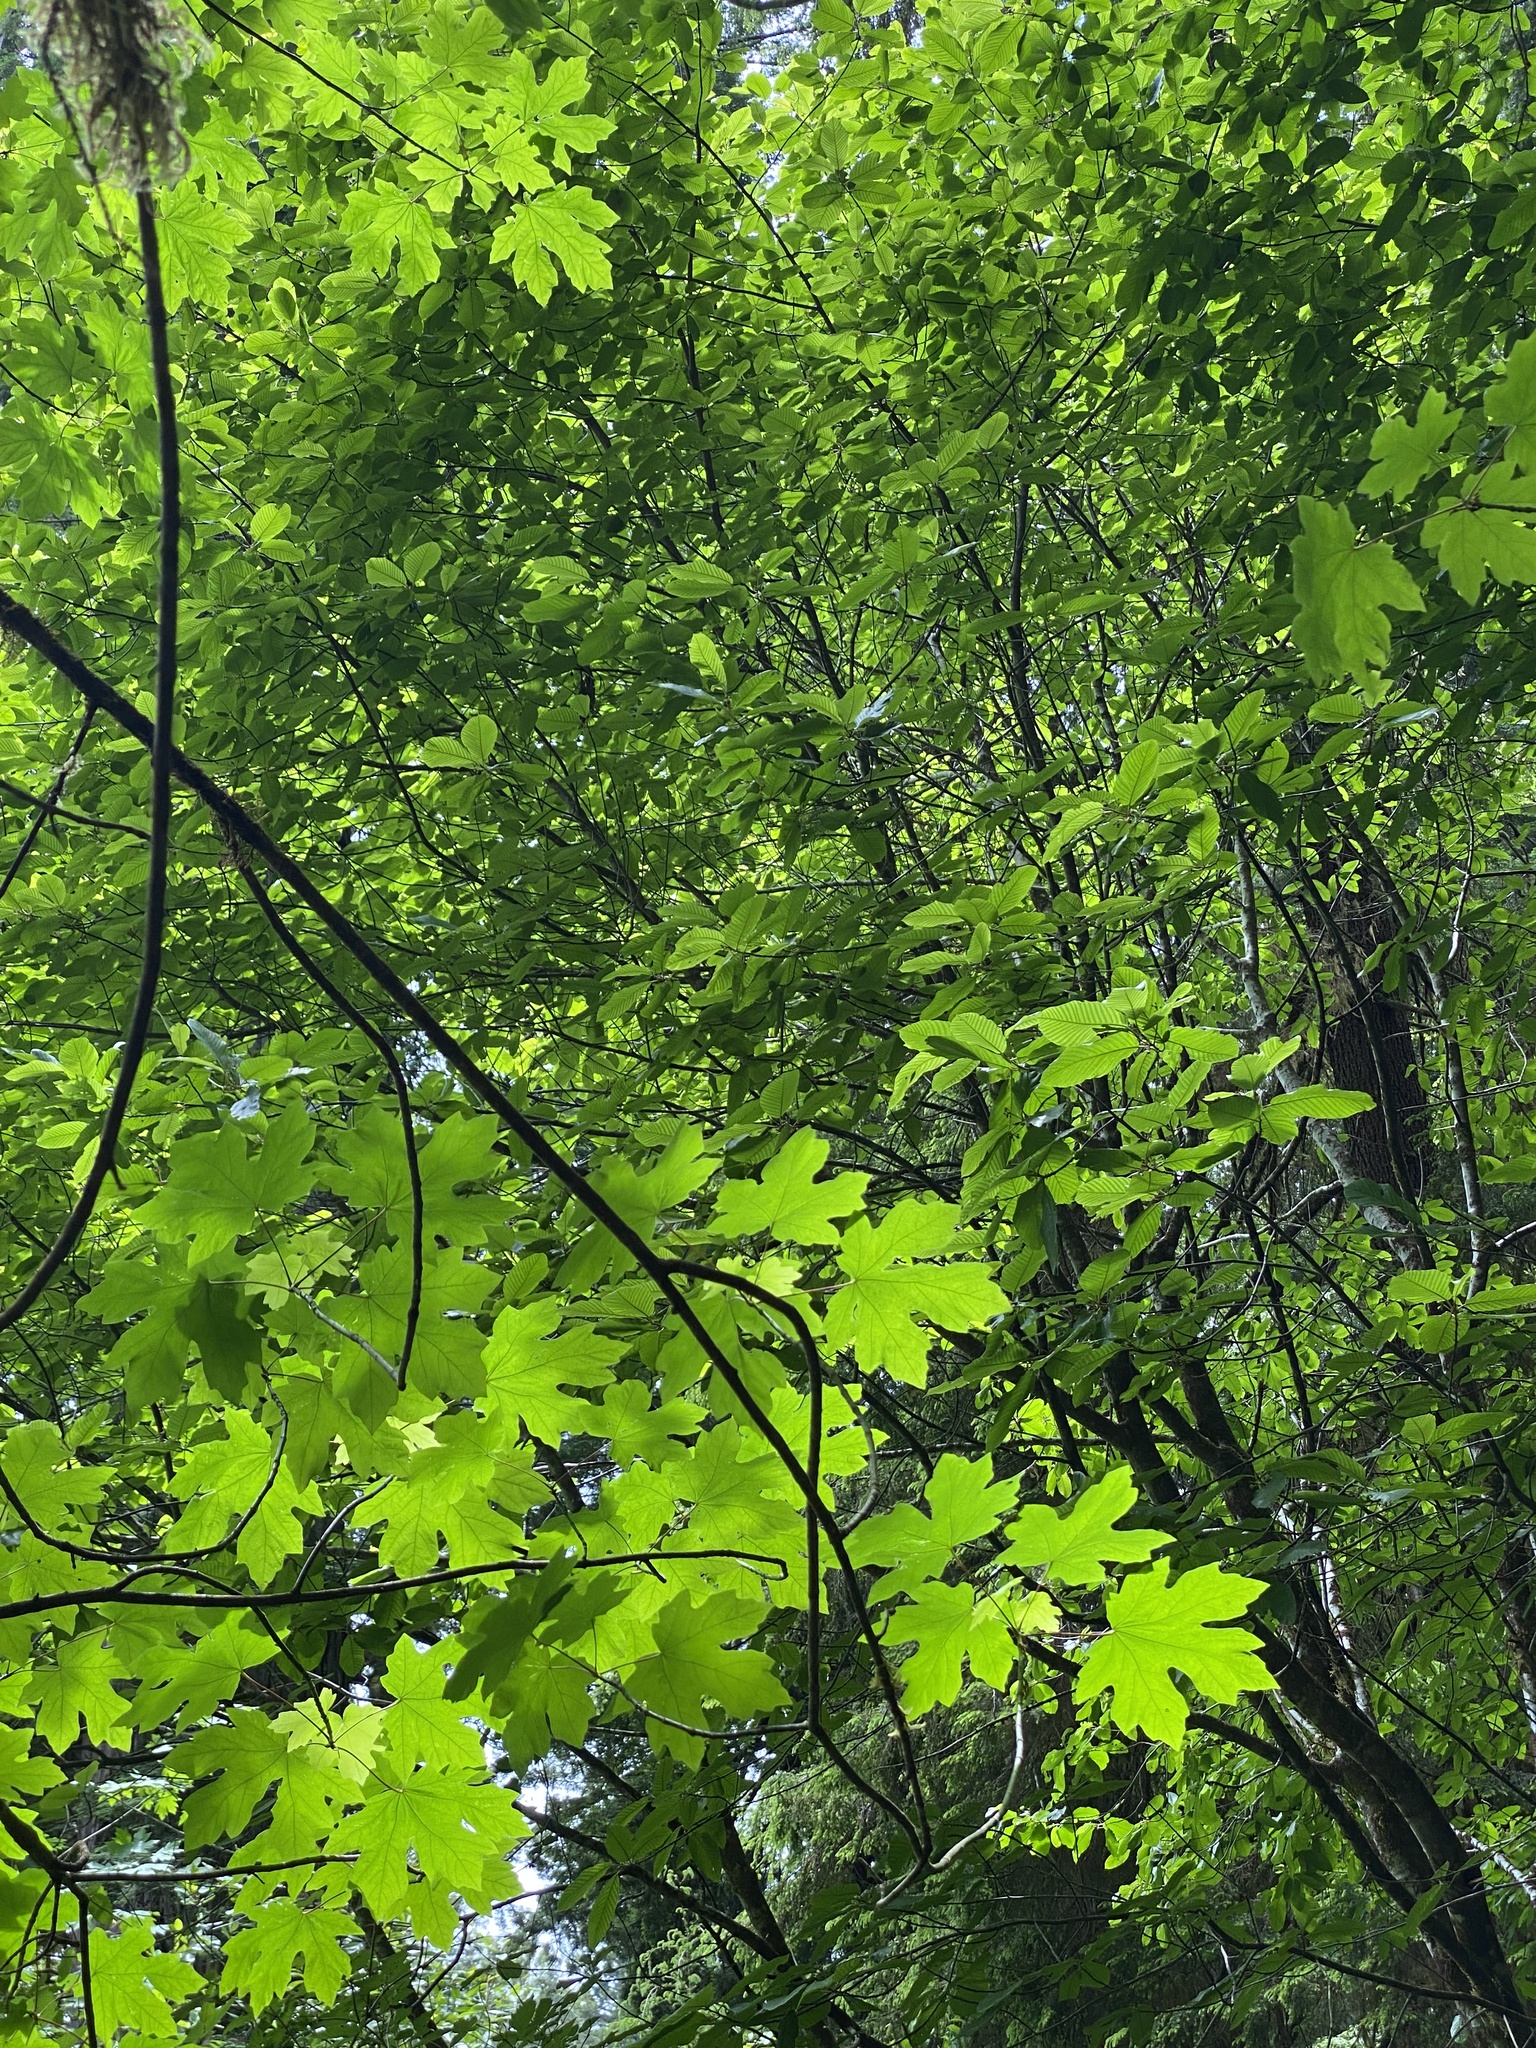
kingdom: Plantae
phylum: Tracheophyta
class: Magnoliopsida
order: Sapindales
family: Sapindaceae
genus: Acer
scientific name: Acer macrophyllum
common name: Oregon maple
